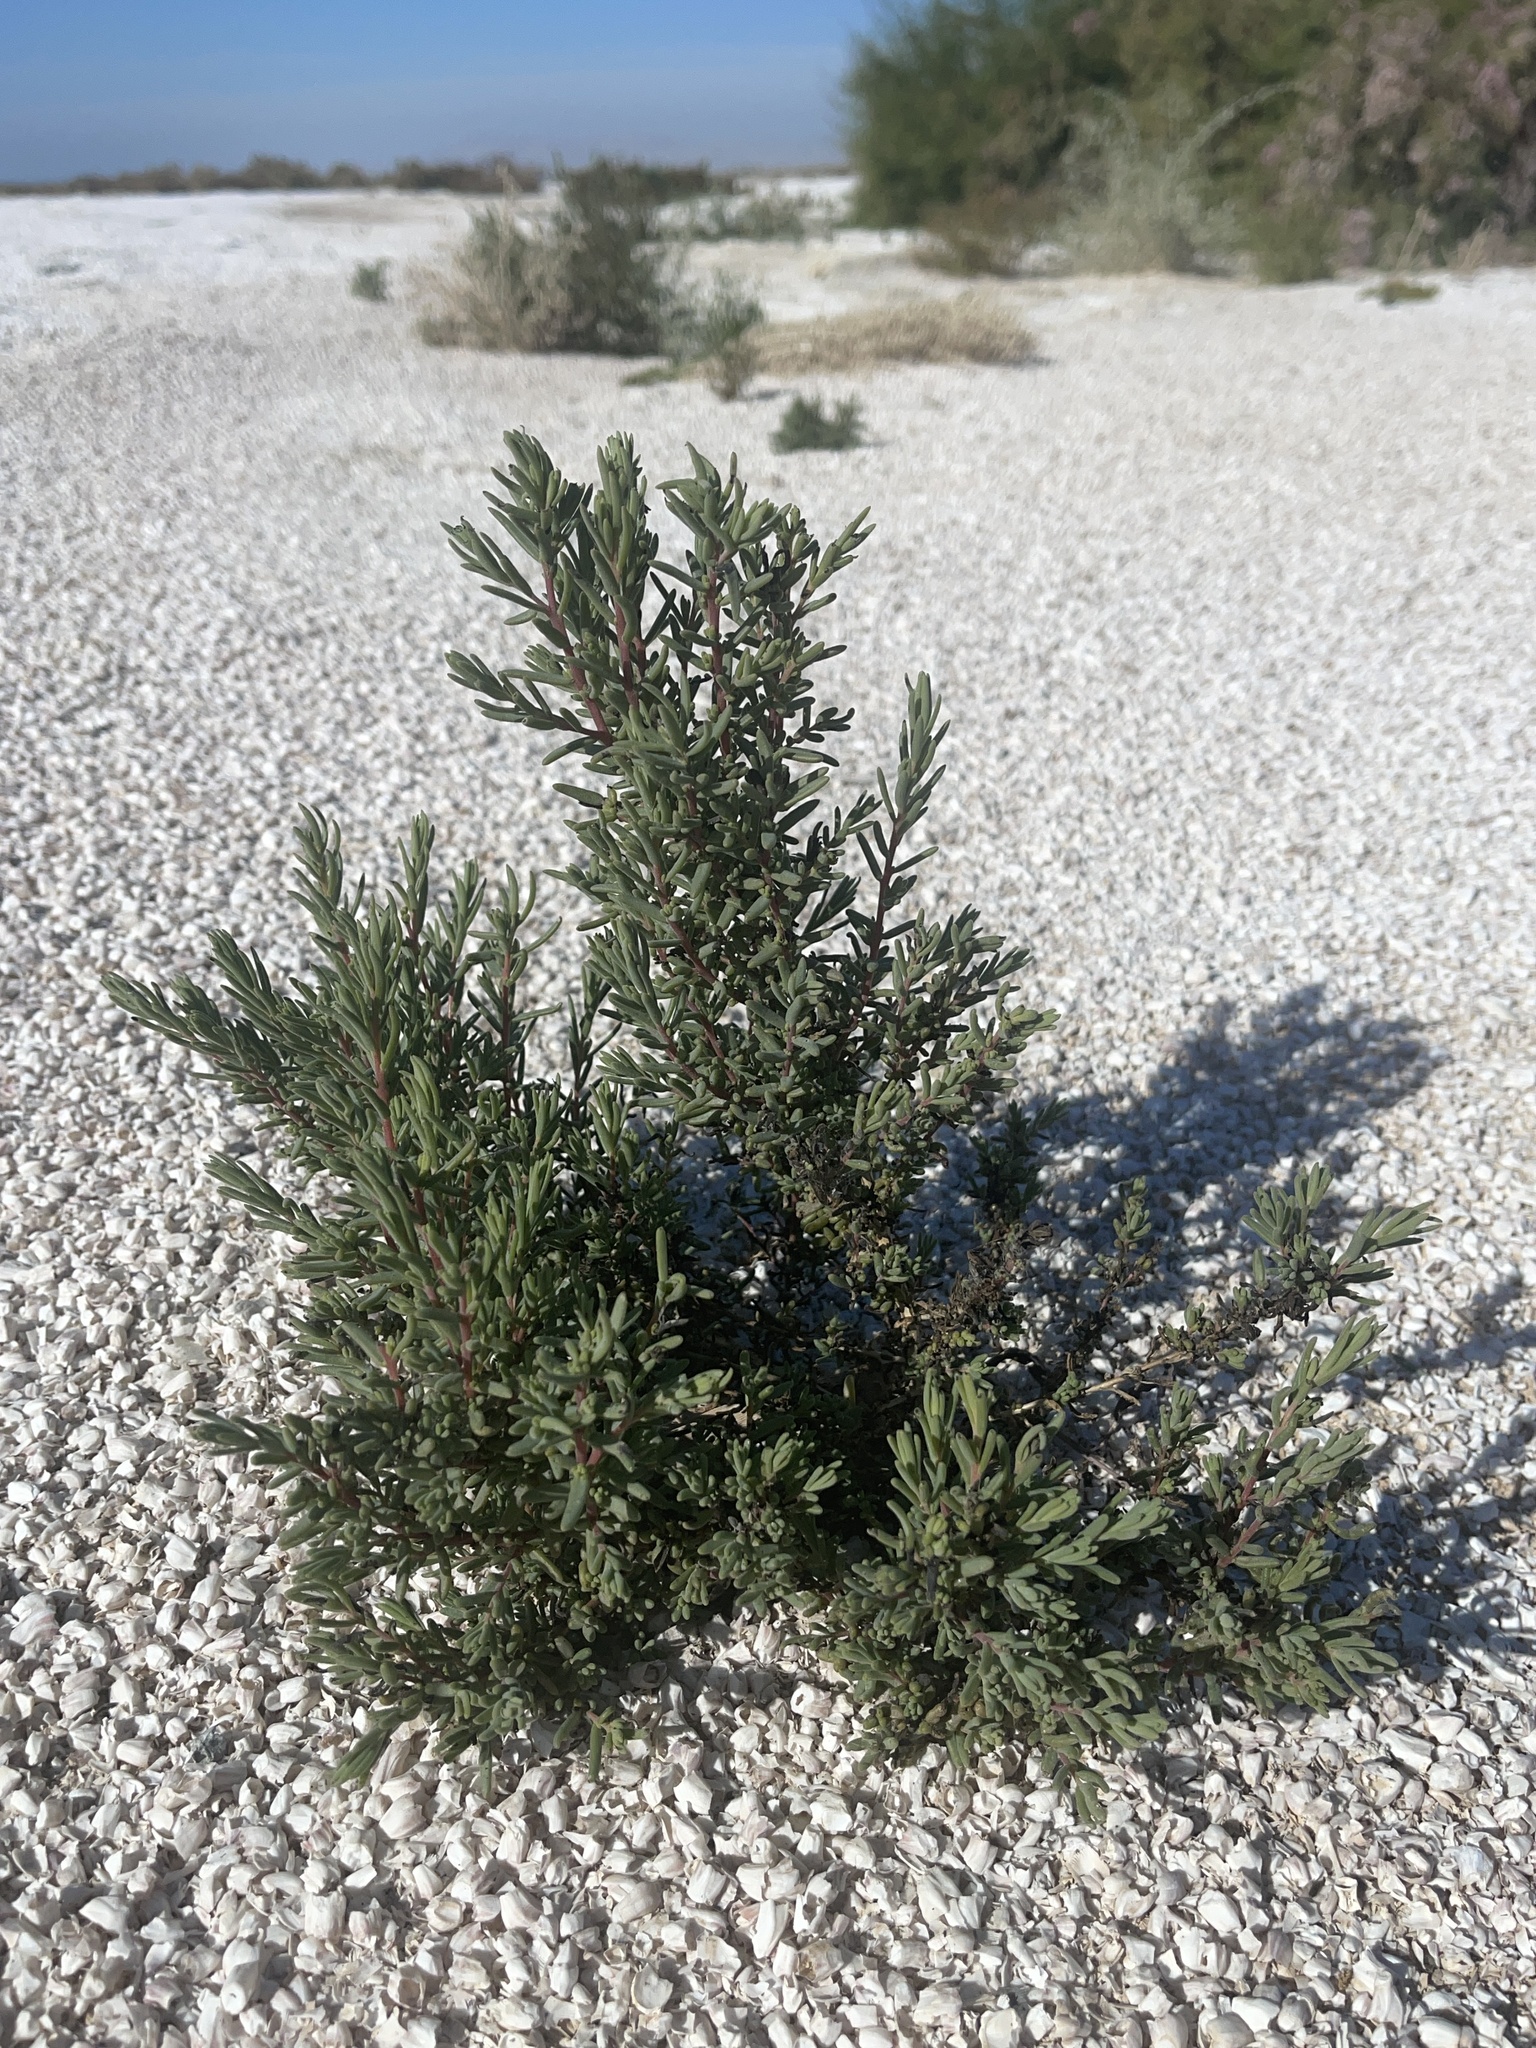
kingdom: Plantae
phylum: Tracheophyta
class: Magnoliopsida
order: Caryophyllales
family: Amaranthaceae
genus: Suaeda
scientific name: Suaeda nigra
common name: Bush seepweed
